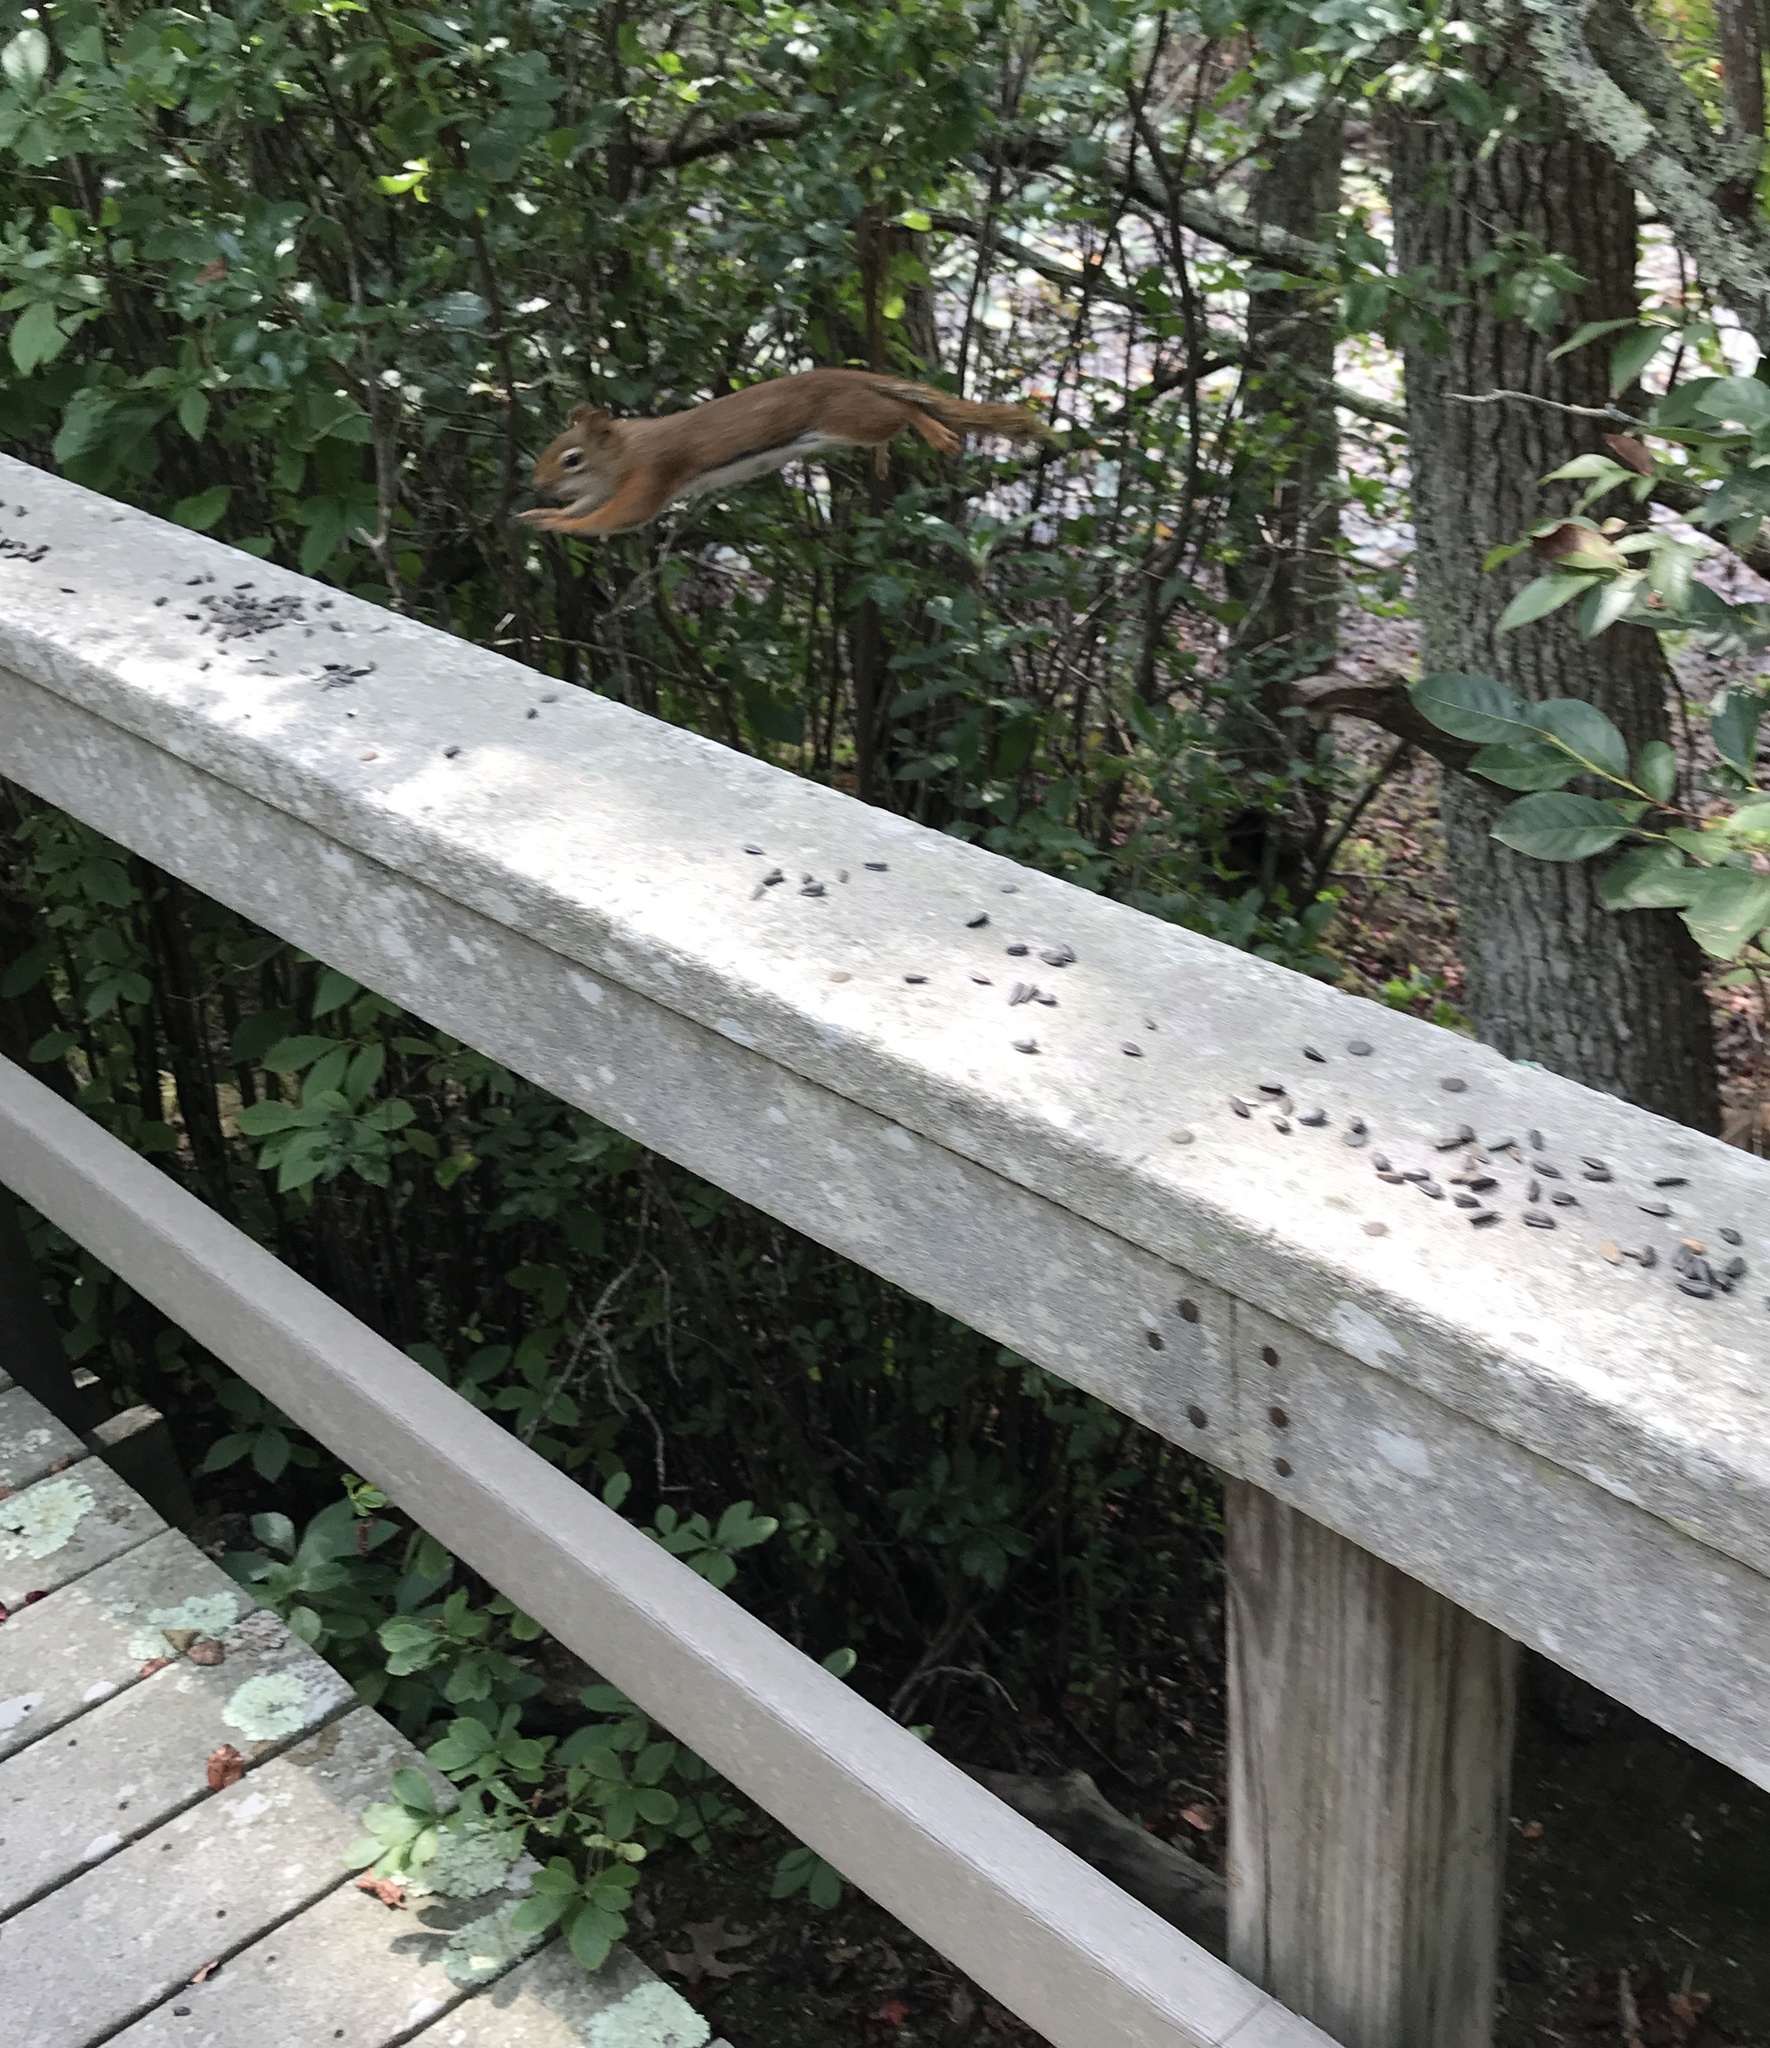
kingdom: Animalia
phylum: Chordata
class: Mammalia
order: Rodentia
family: Sciuridae
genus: Tamiasciurus
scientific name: Tamiasciurus hudsonicus
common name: Red squirrel
